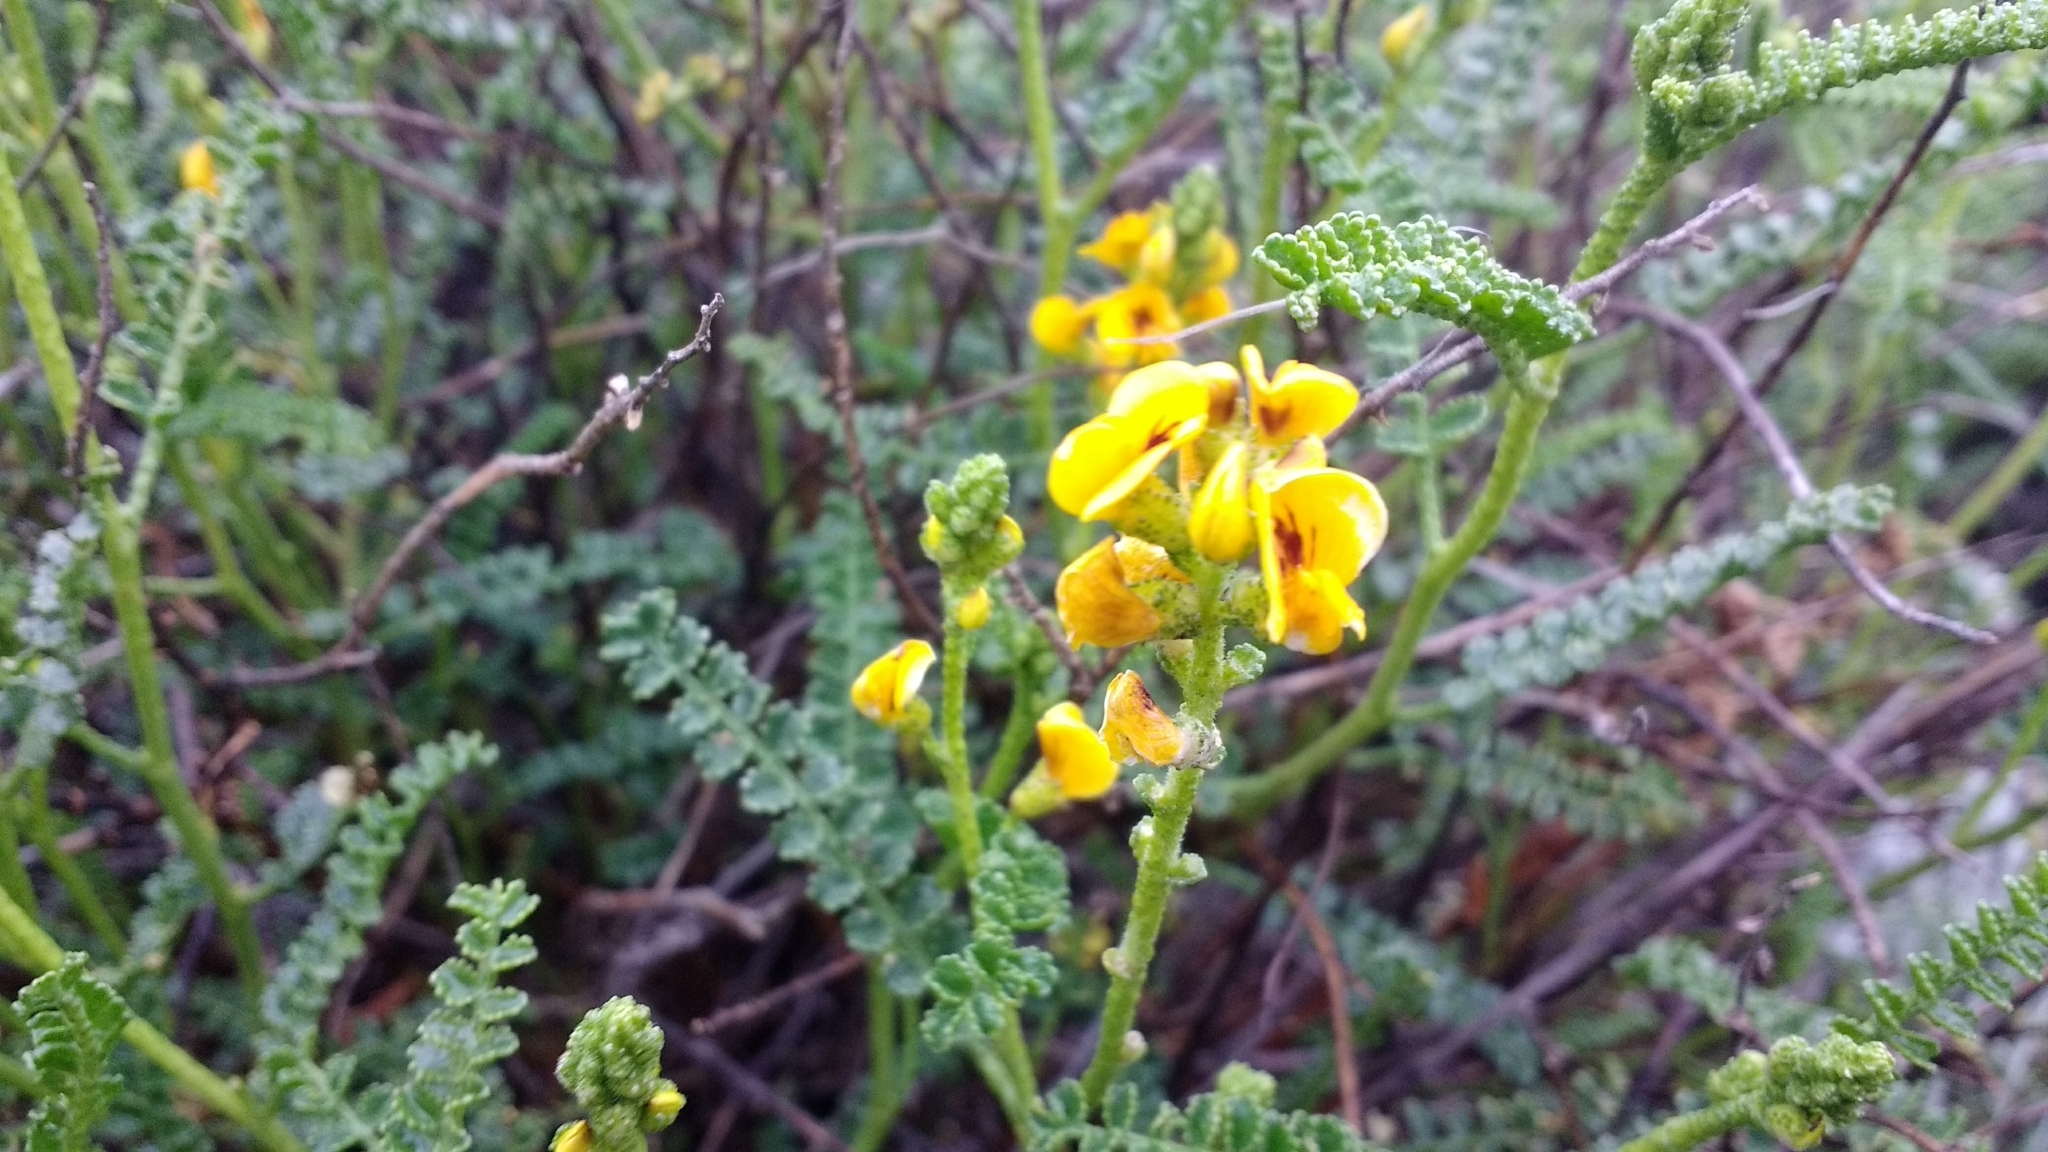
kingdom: Plantae
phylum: Tracheophyta
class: Magnoliopsida
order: Fabales
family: Fabaceae
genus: Adesmia
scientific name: Adesmia boronioides
